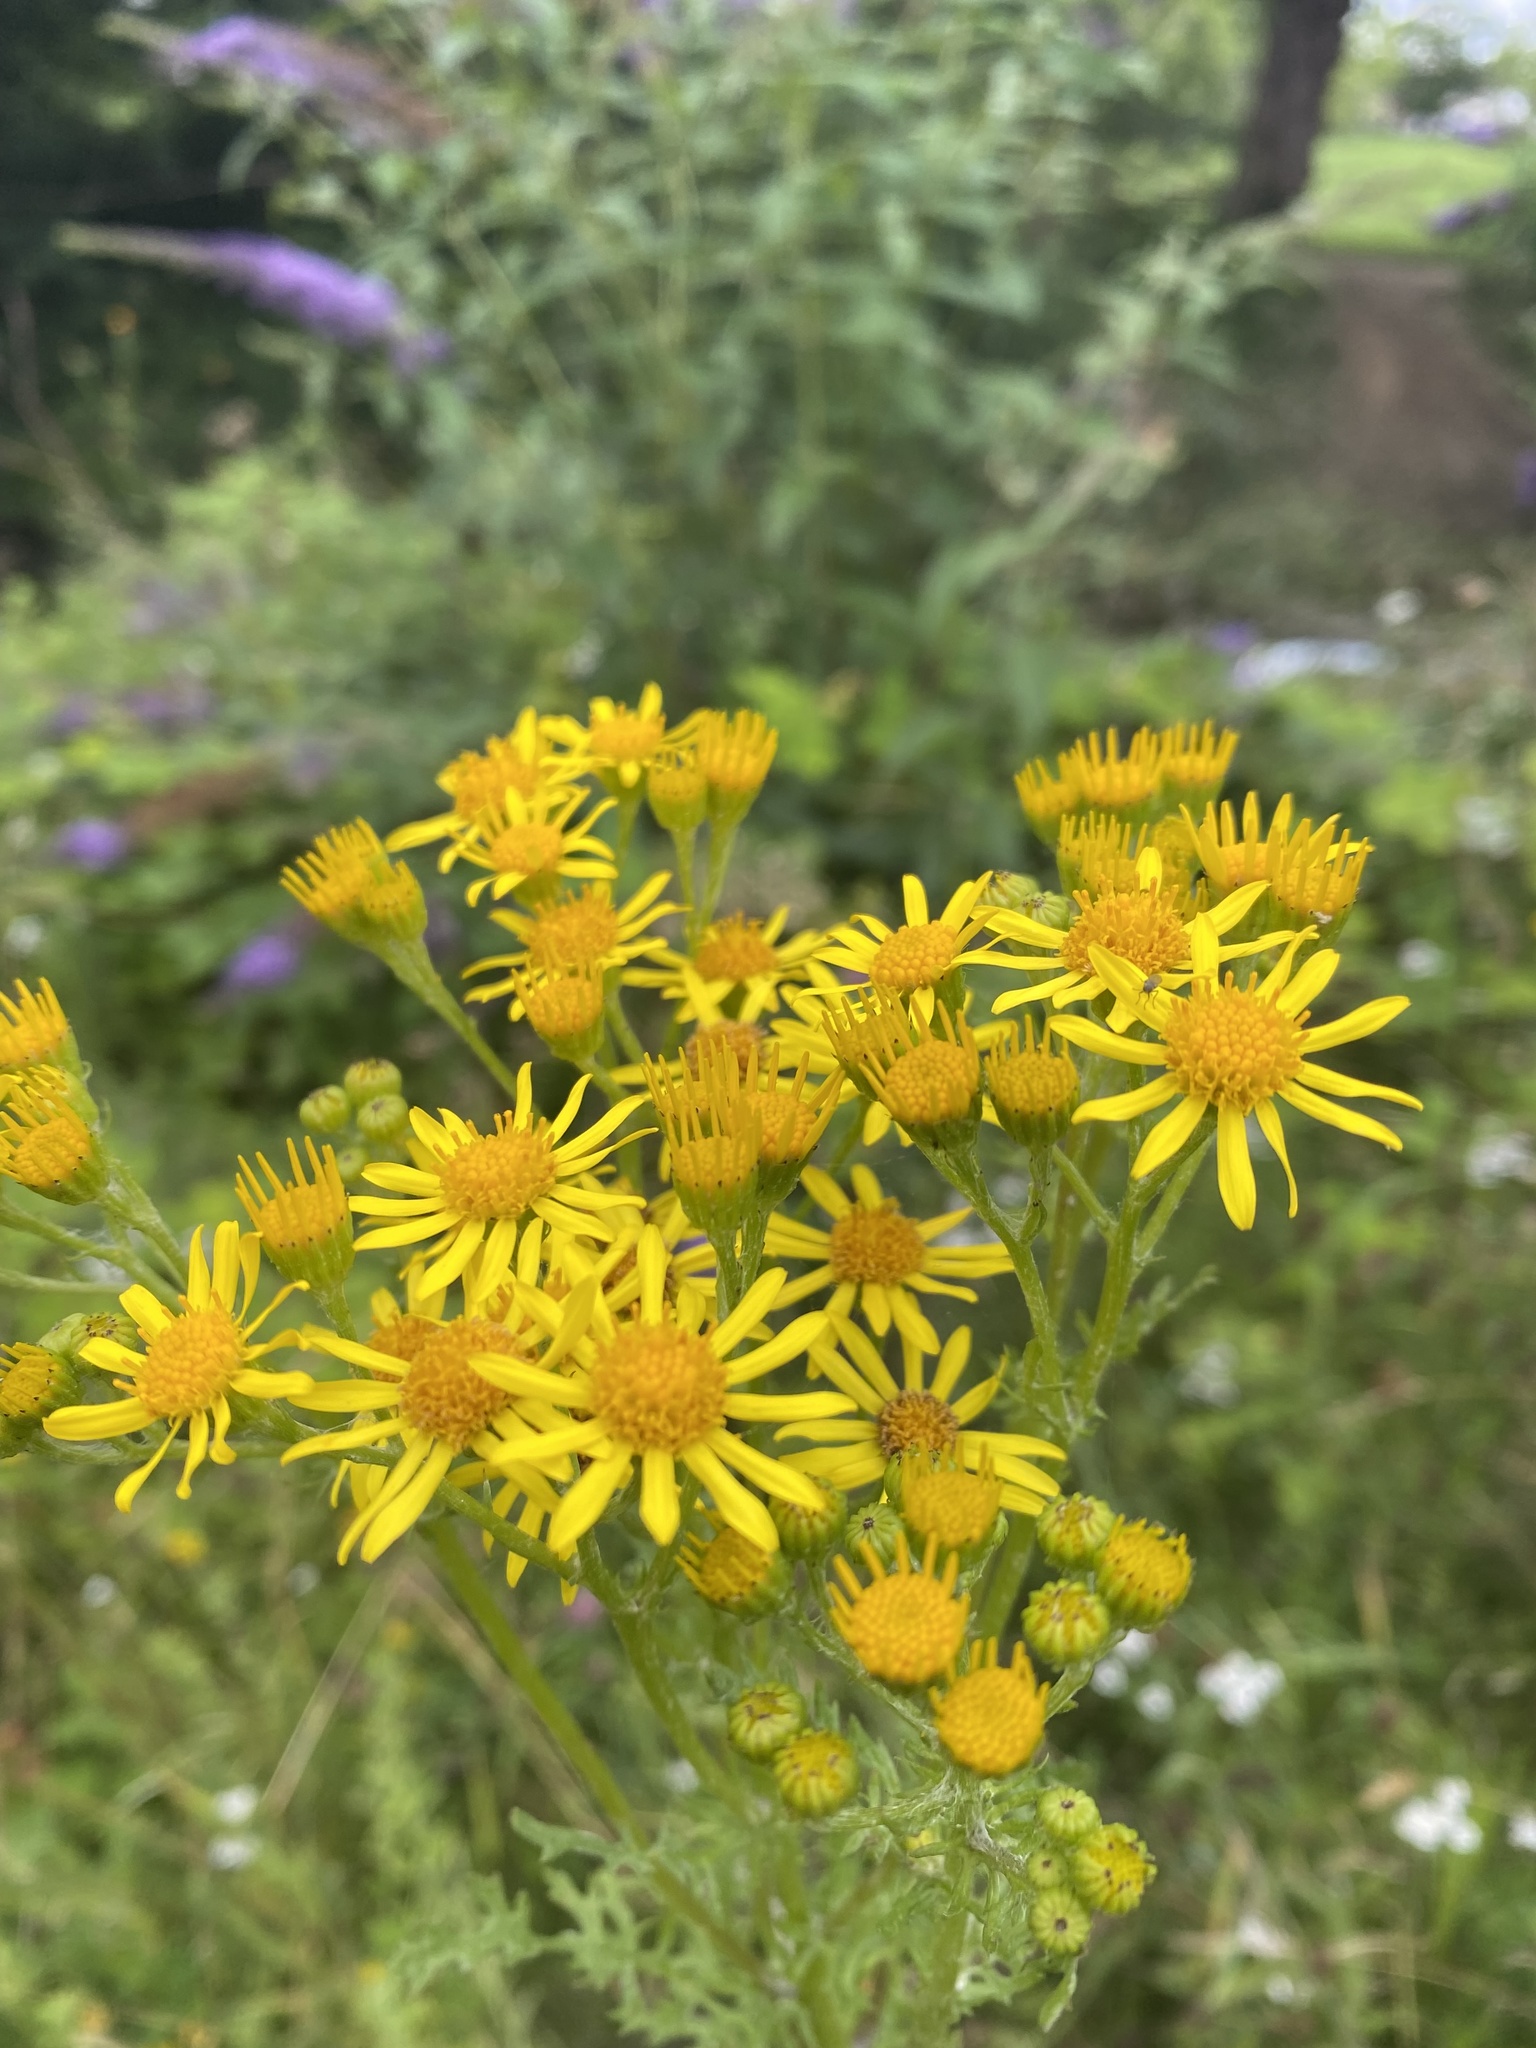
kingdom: Plantae
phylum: Tracheophyta
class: Magnoliopsida
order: Asterales
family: Asteraceae
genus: Jacobaea
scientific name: Jacobaea vulgaris
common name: Stinking willie
